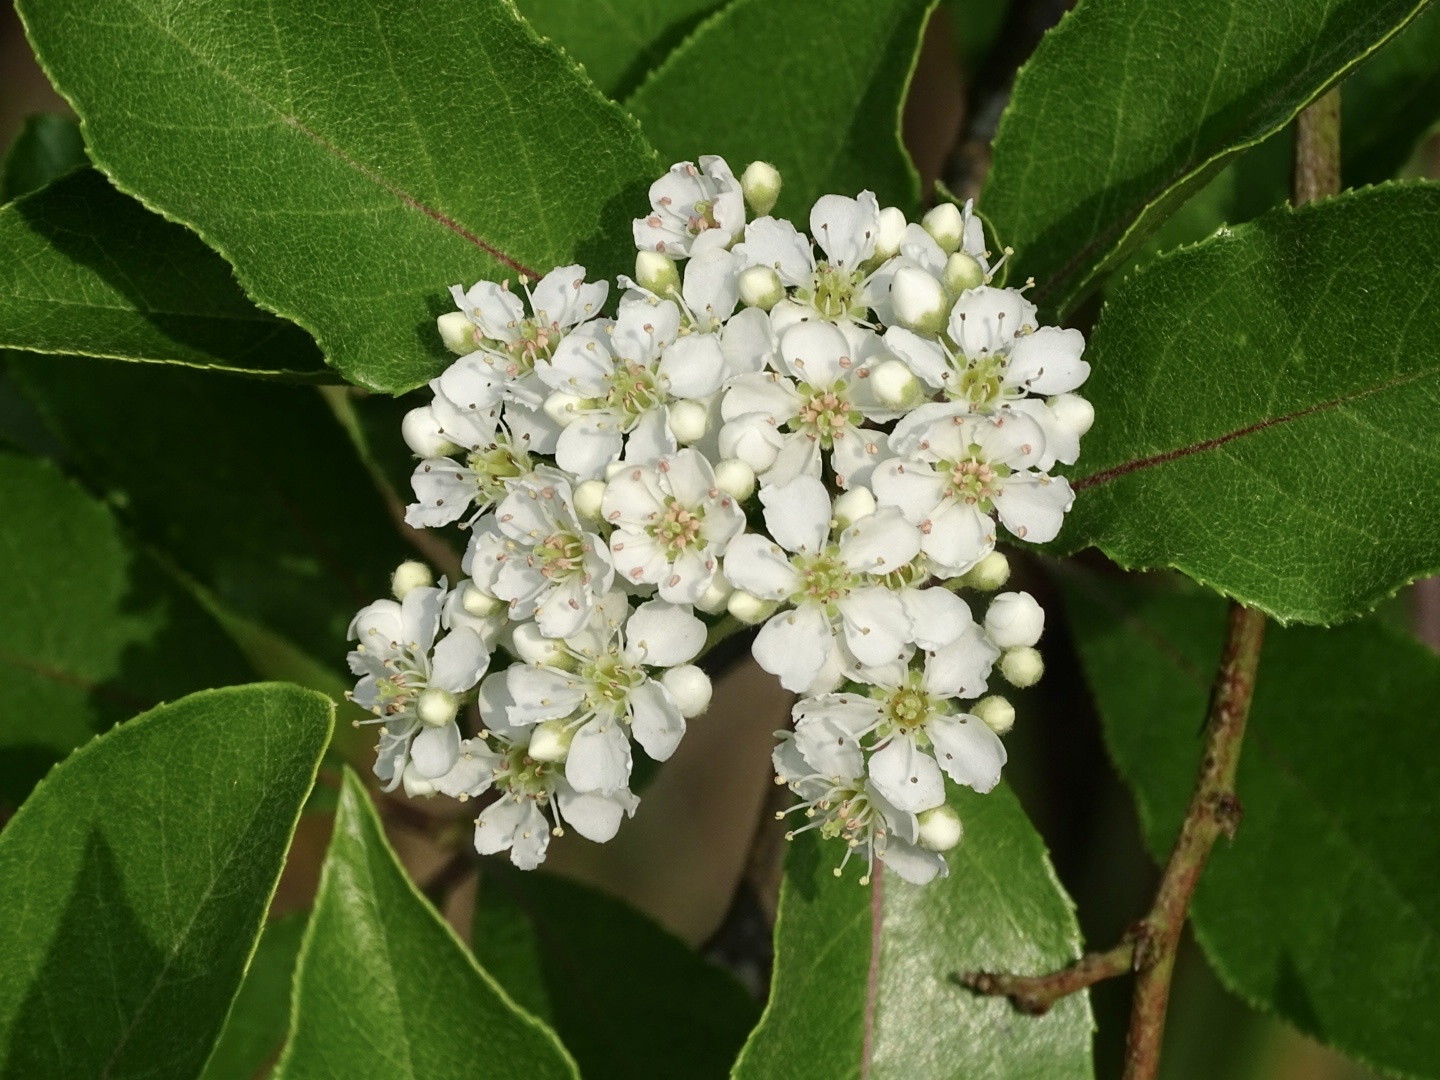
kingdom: Plantae
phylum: Tracheophyta
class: Magnoliopsida
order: Rosales
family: Rosaceae
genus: Pyrus
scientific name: Pyrus calleryana
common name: Callery pear
